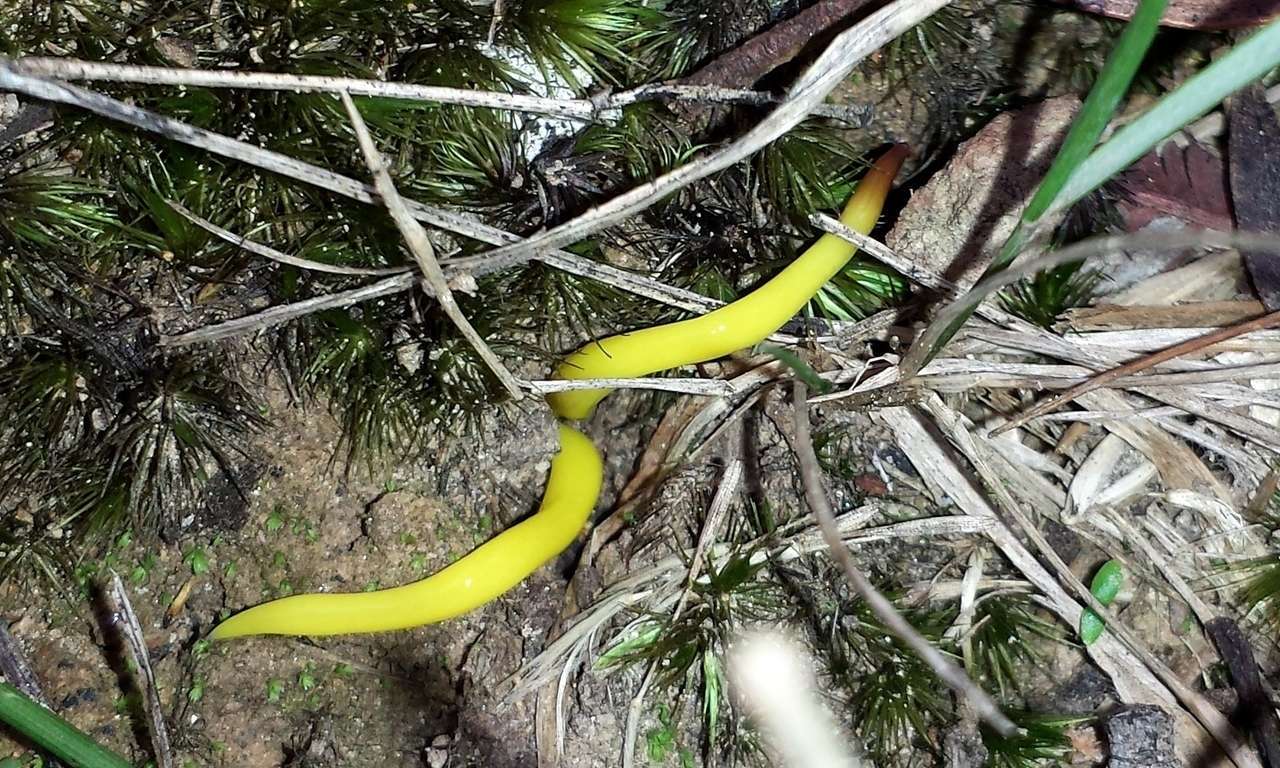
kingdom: Animalia
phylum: Platyhelminthes
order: Tricladida
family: Geoplanidae
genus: Fletchamia
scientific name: Fletchamia sugdeni
